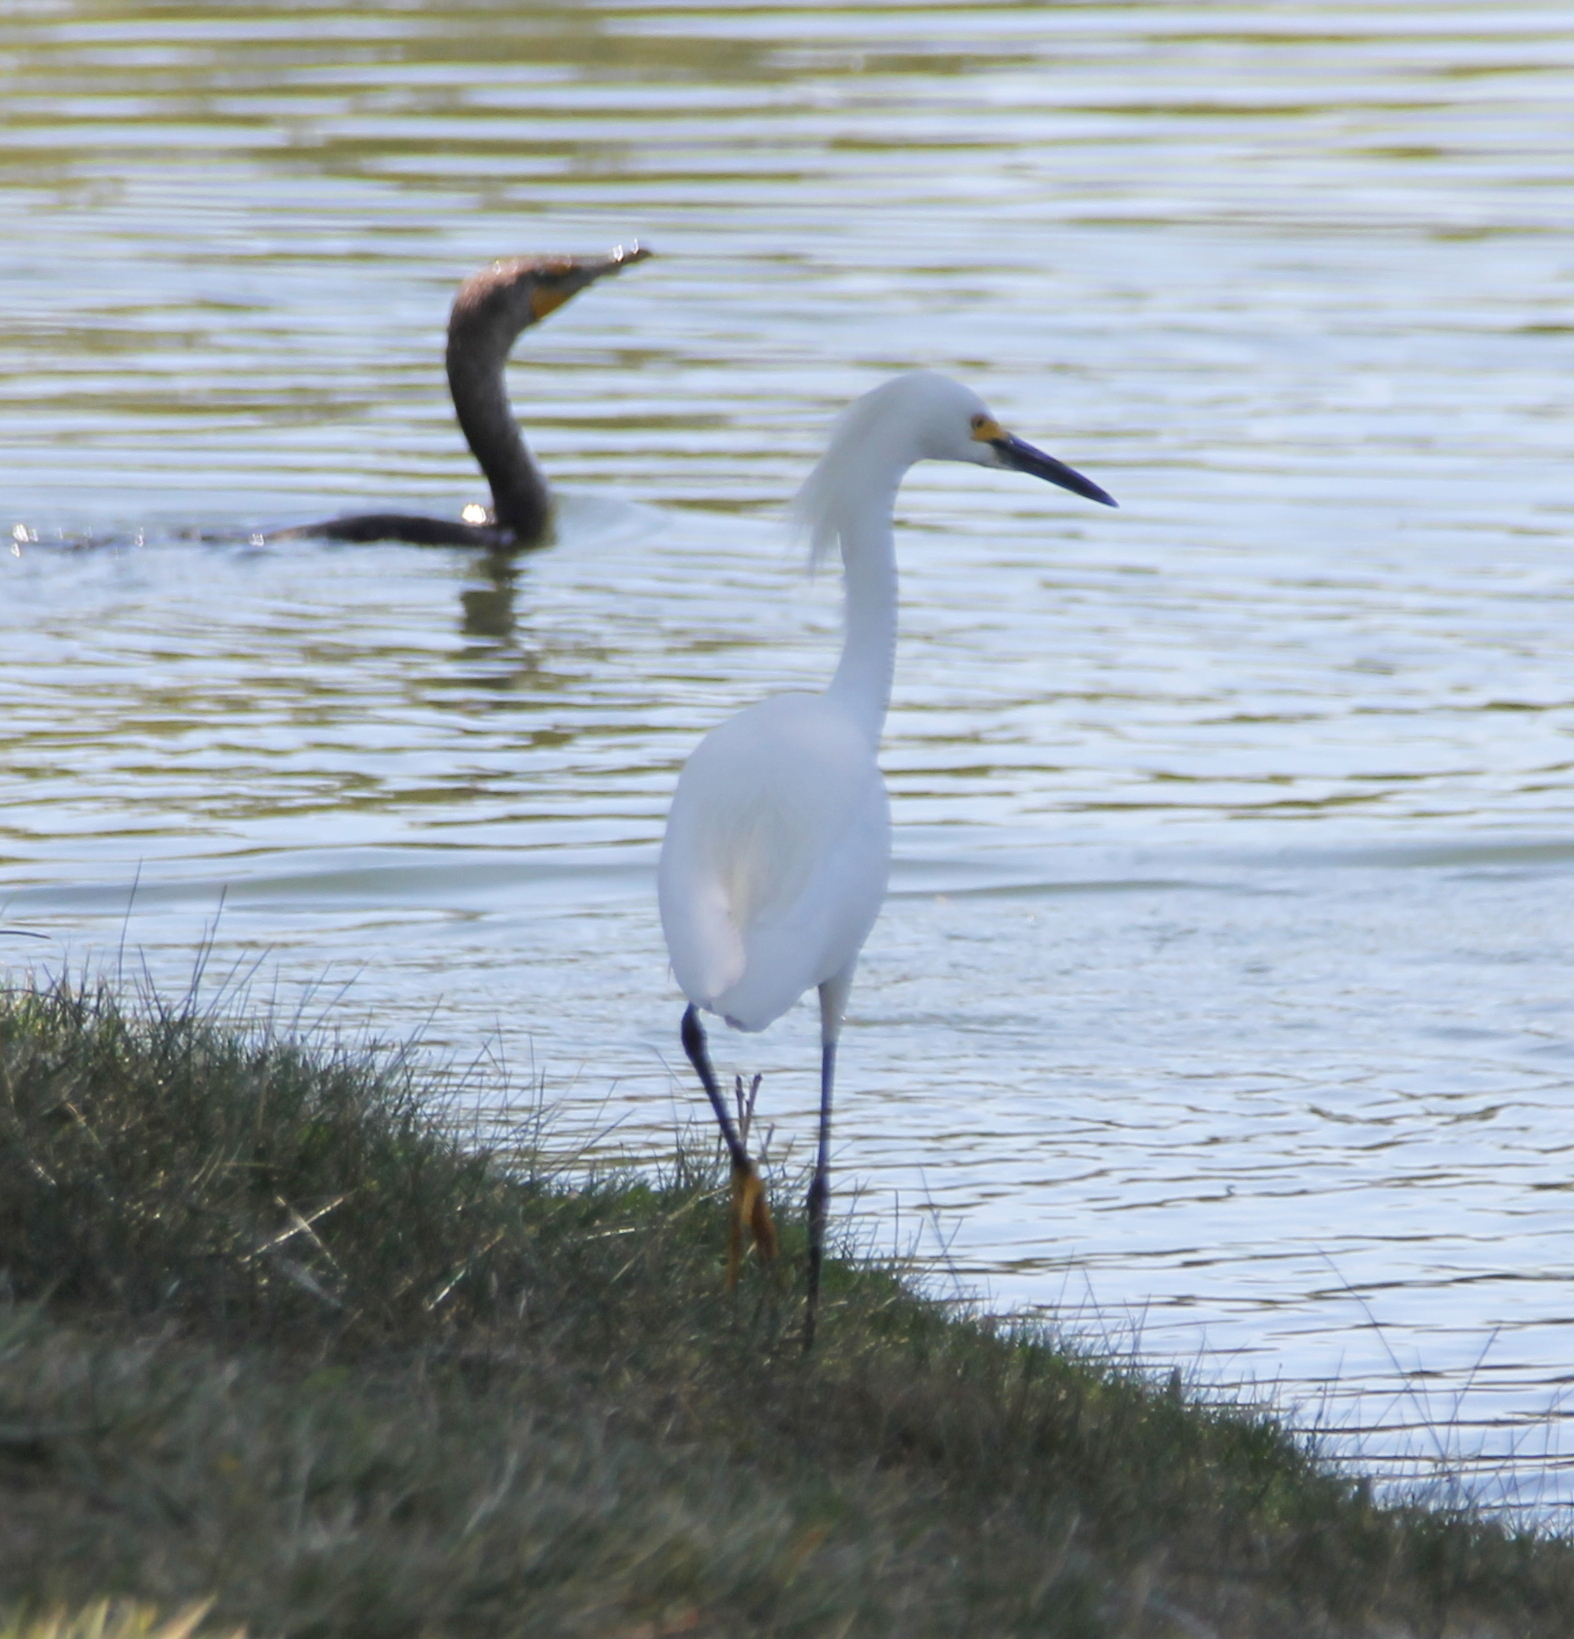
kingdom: Animalia
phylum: Chordata
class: Aves
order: Pelecaniformes
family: Ardeidae
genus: Egretta
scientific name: Egretta thula
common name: Snowy egret
